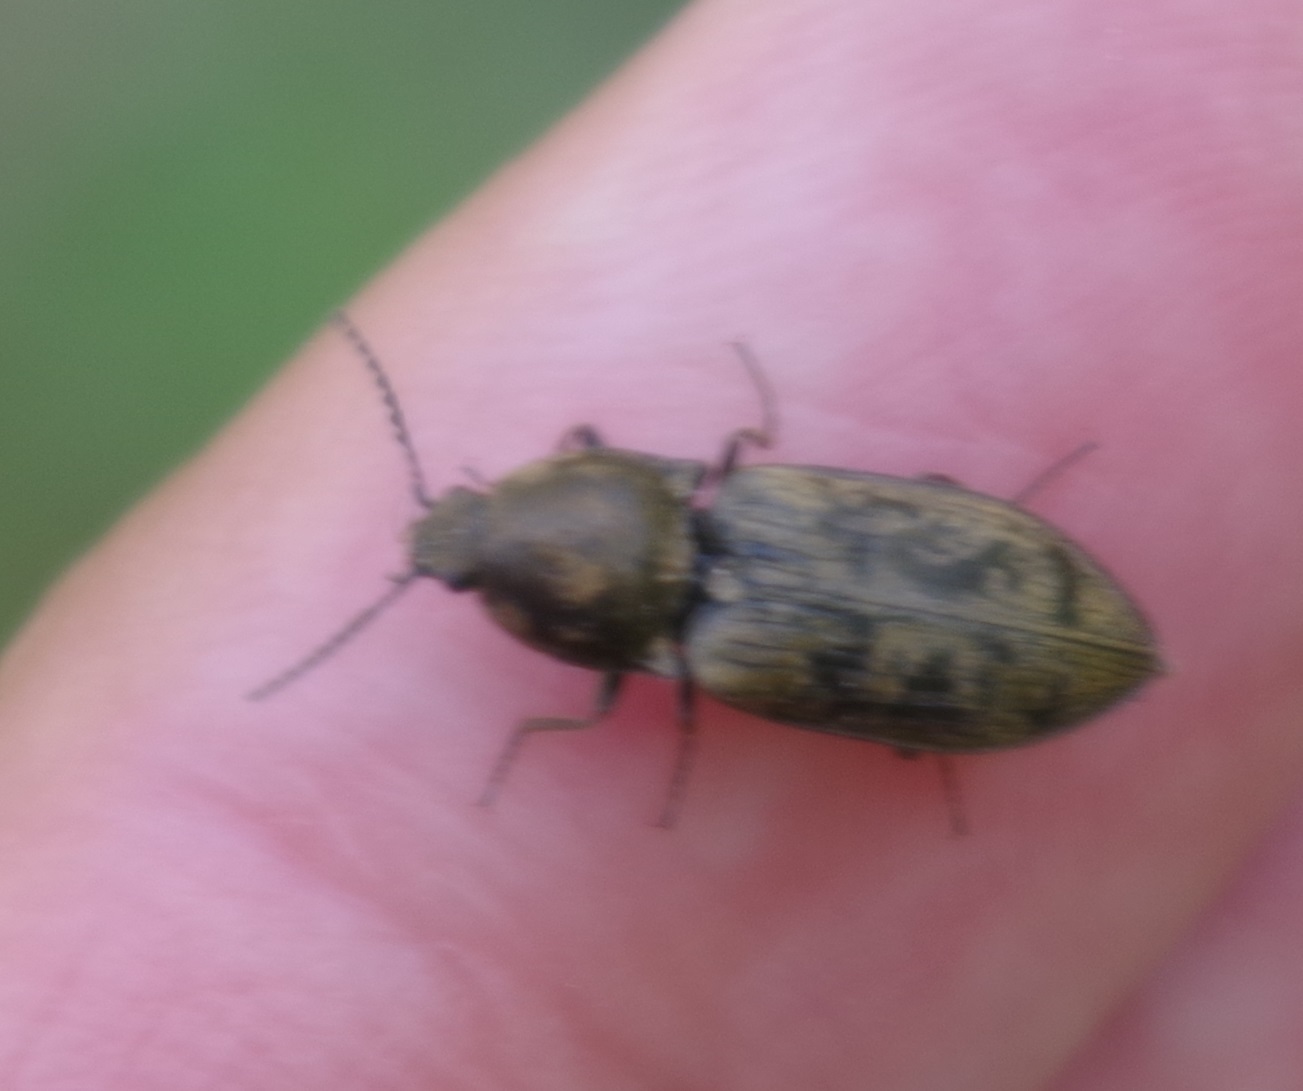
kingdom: Animalia
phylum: Arthropoda
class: Insecta
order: Coleoptera
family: Elateridae
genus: Prosternon
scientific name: Prosternon tessellatum
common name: Chequered click beetle
